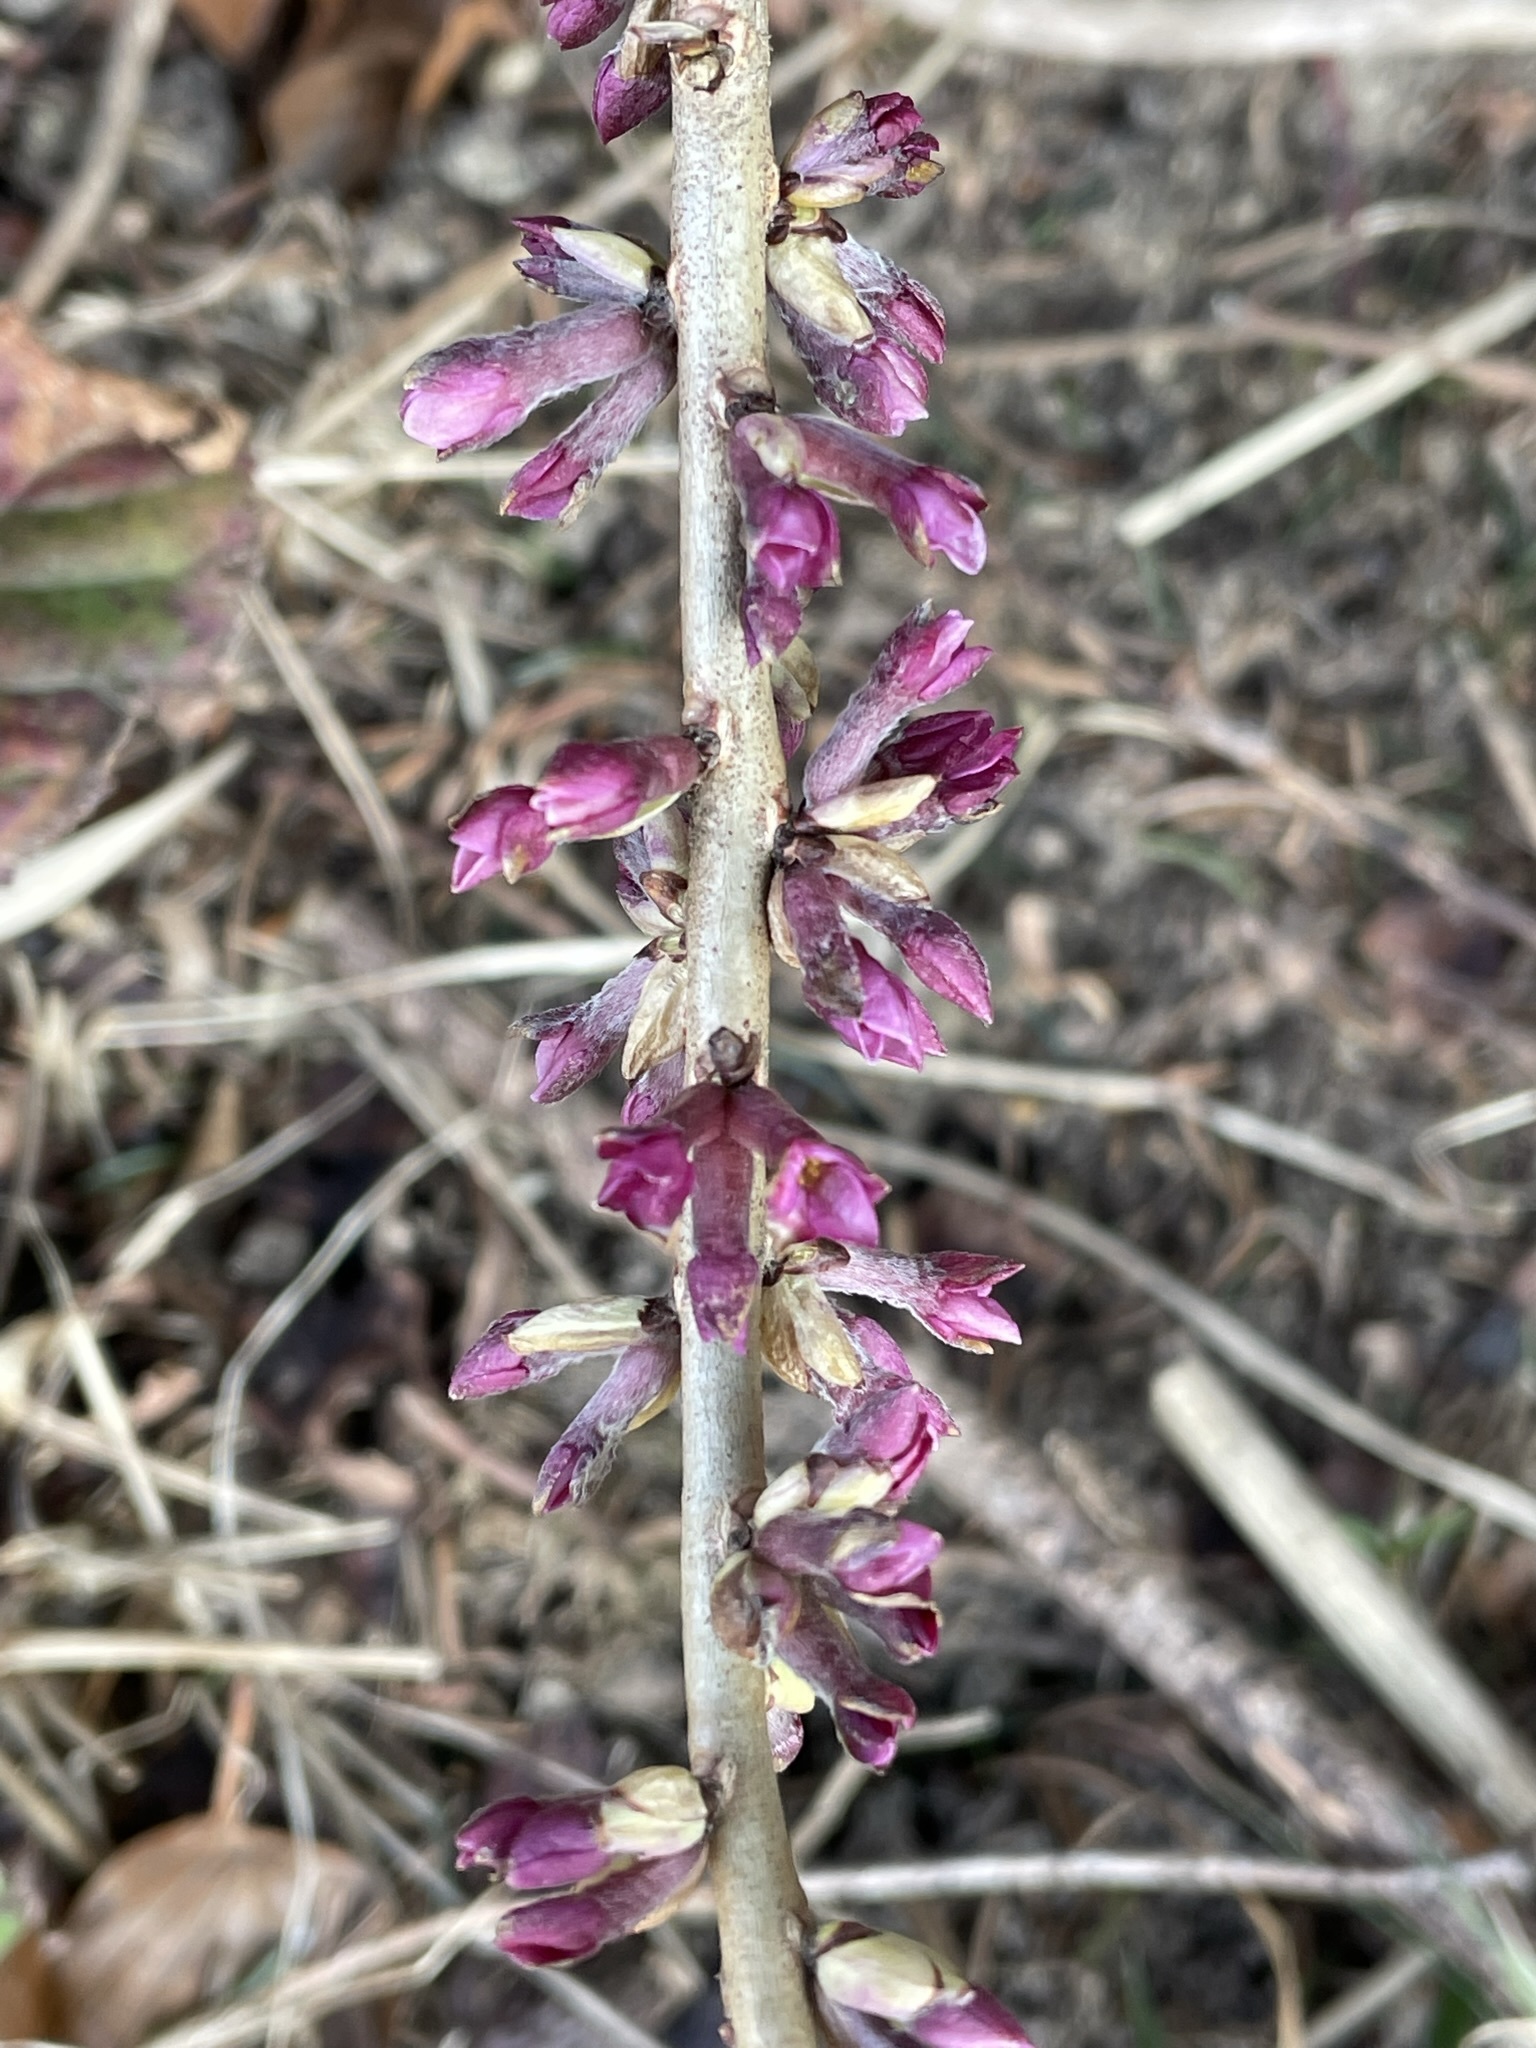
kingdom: Plantae
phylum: Tracheophyta
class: Magnoliopsida
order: Malvales
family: Thymelaeaceae
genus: Daphne
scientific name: Daphne mezereum
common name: Mezereon
